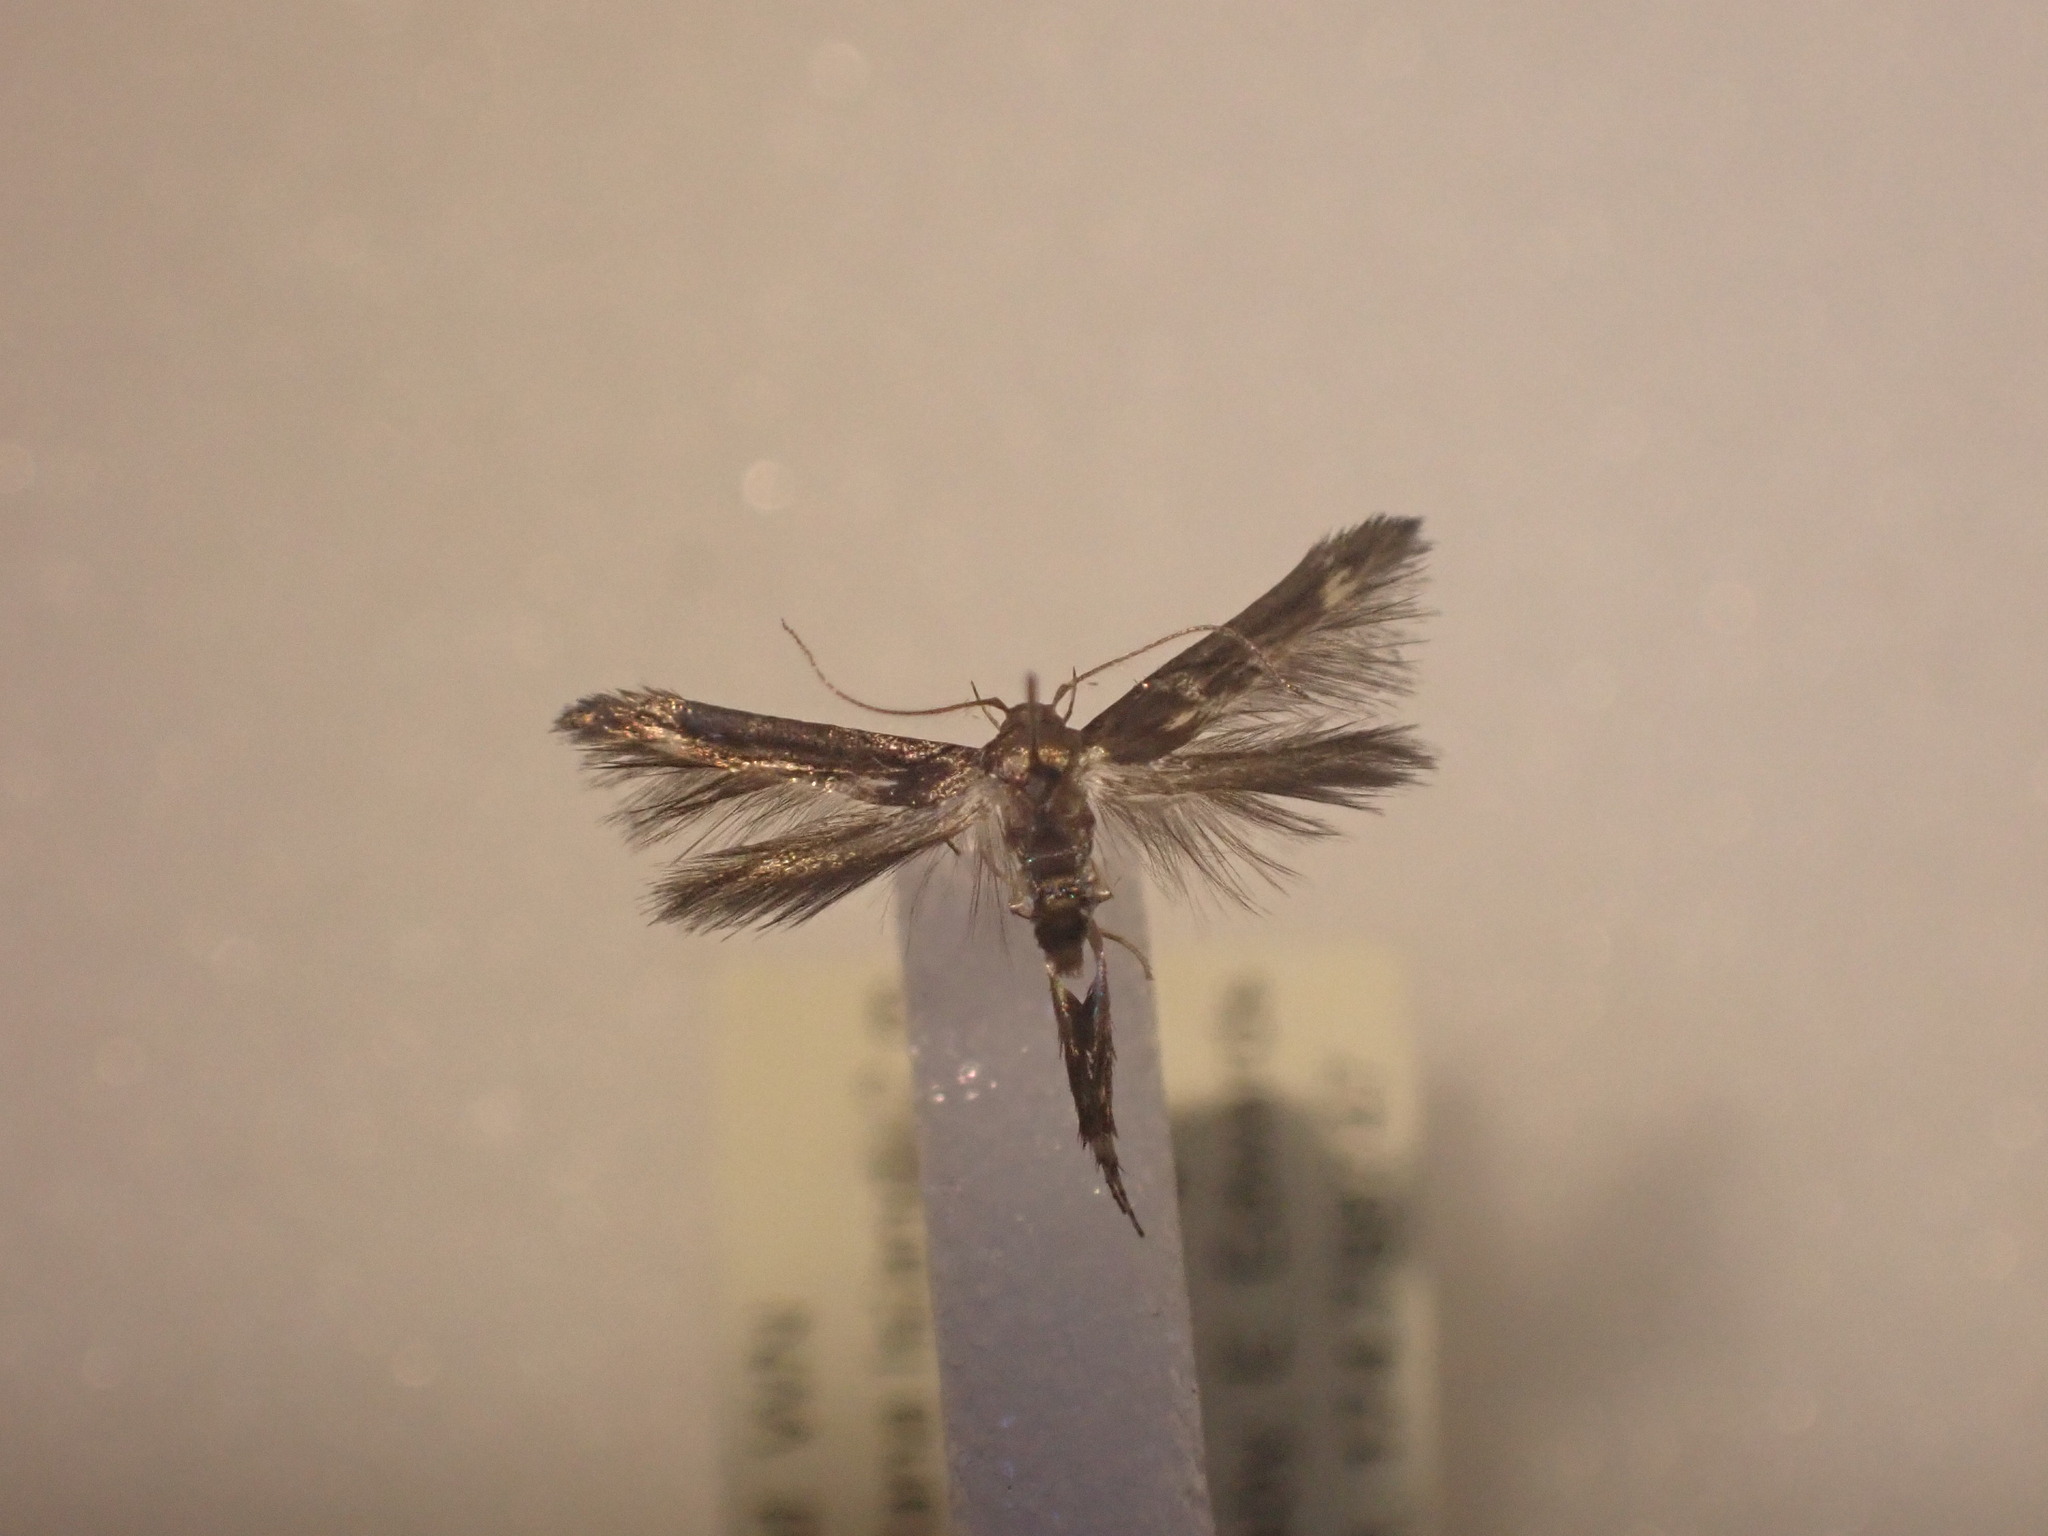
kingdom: Animalia
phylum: Arthropoda
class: Insecta
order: Lepidoptera
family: Stathmopodidae
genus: Stathmopoda
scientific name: Stathmopoda coracodes
